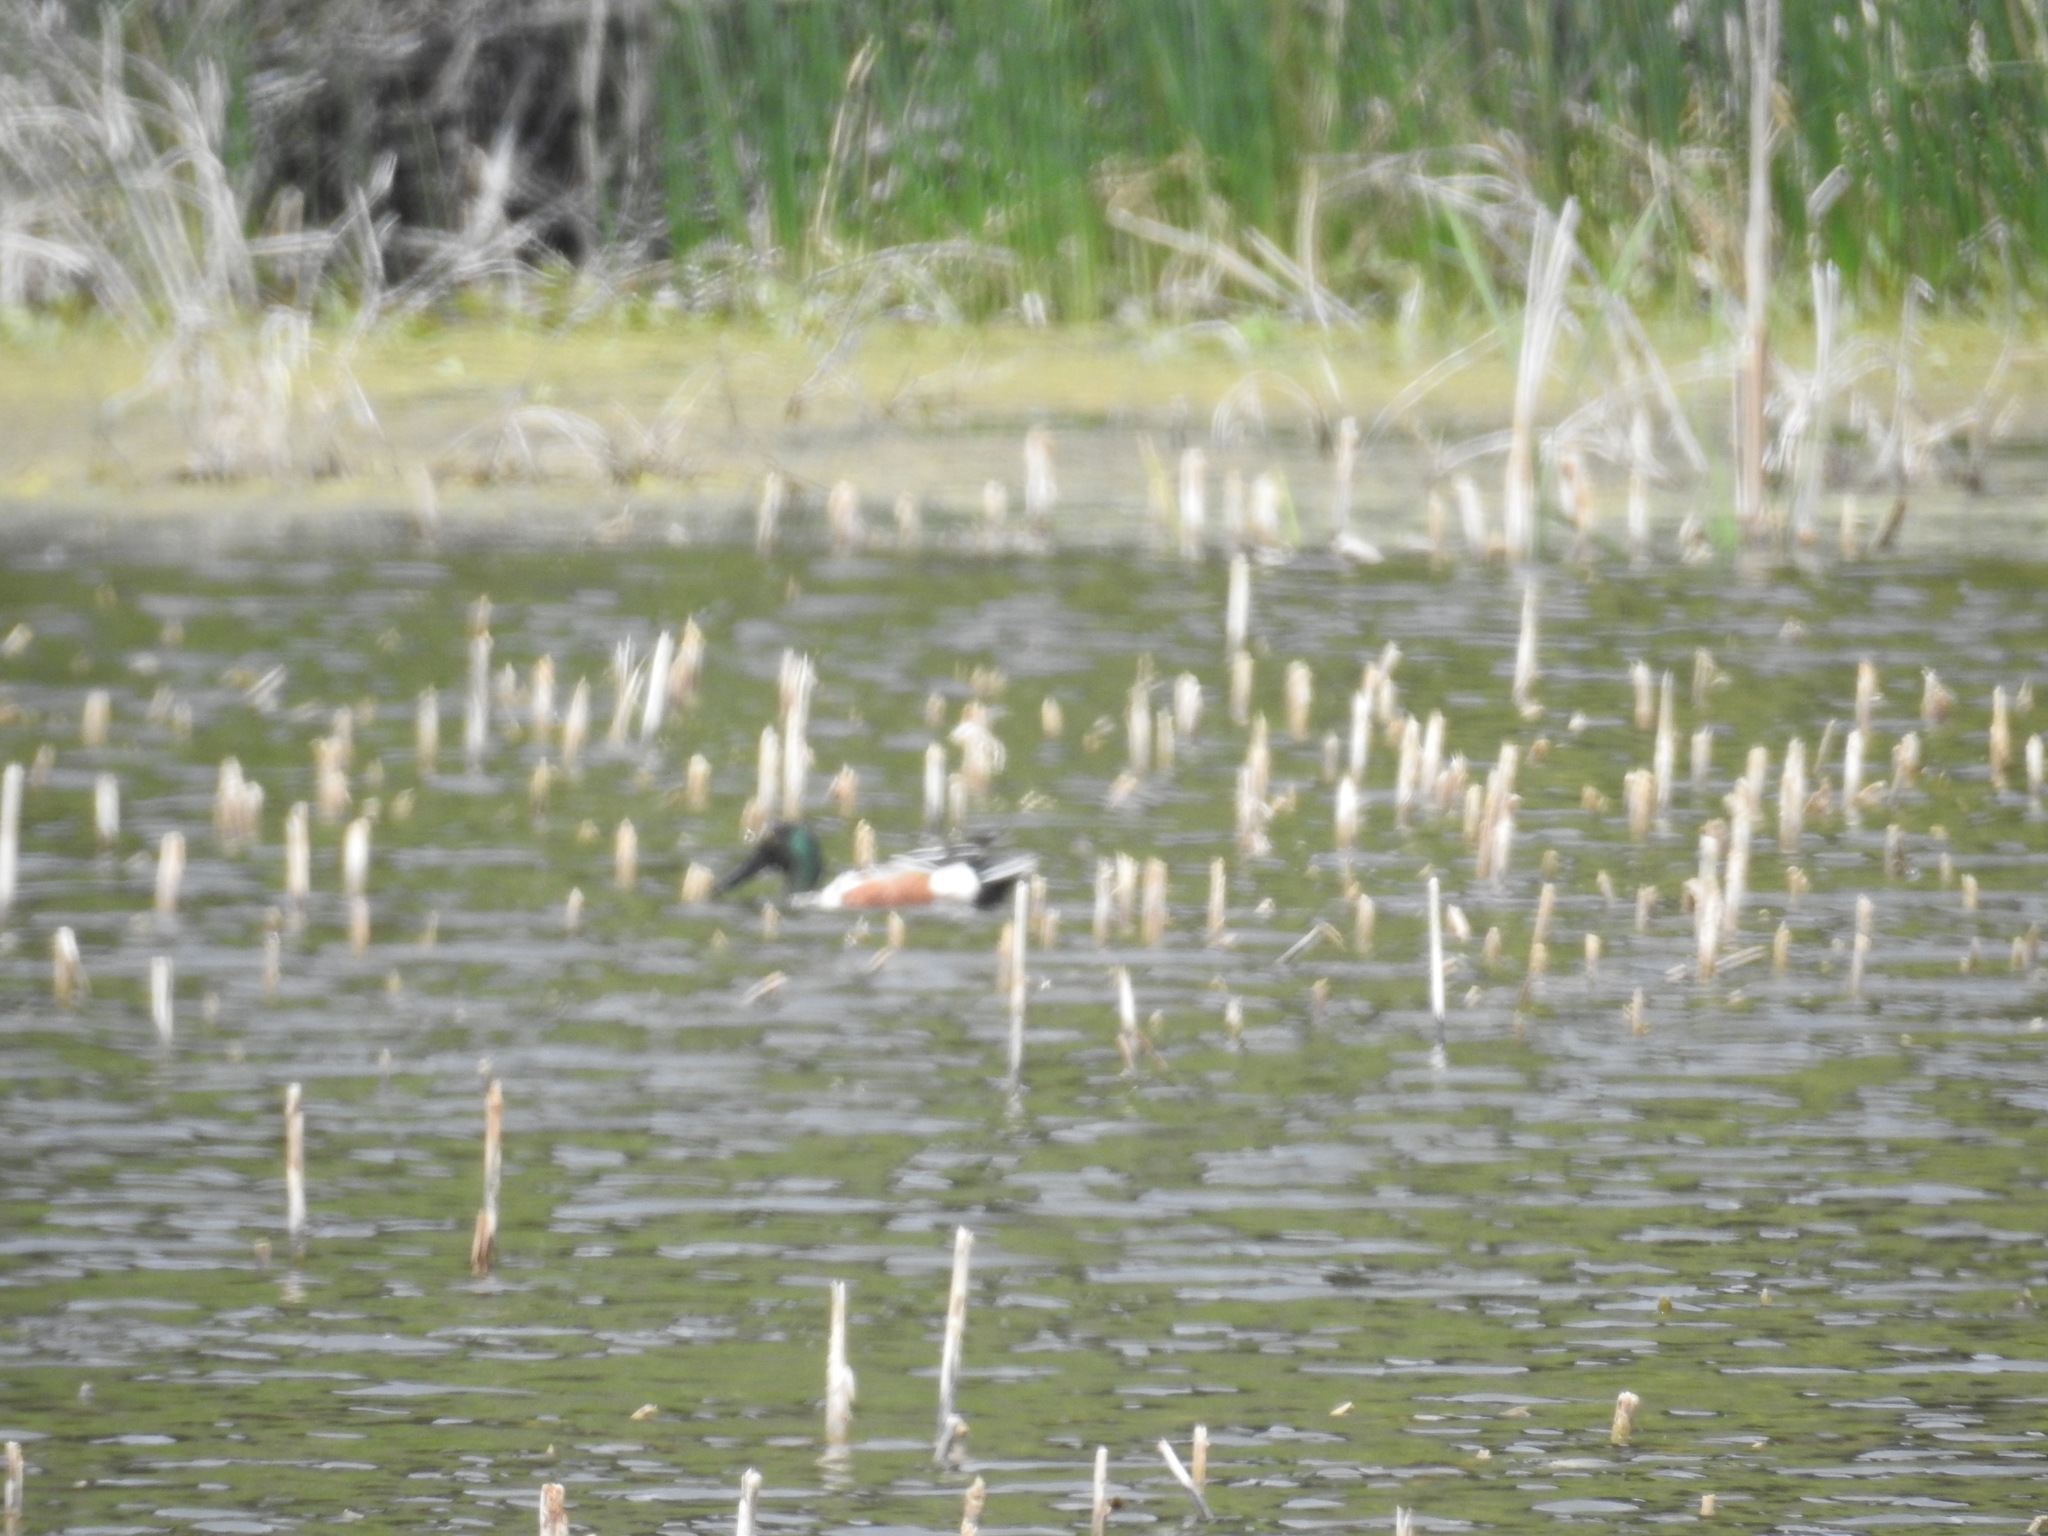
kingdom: Animalia
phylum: Chordata
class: Aves
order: Anseriformes
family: Anatidae
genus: Spatula
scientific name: Spatula clypeata
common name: Northern shoveler
